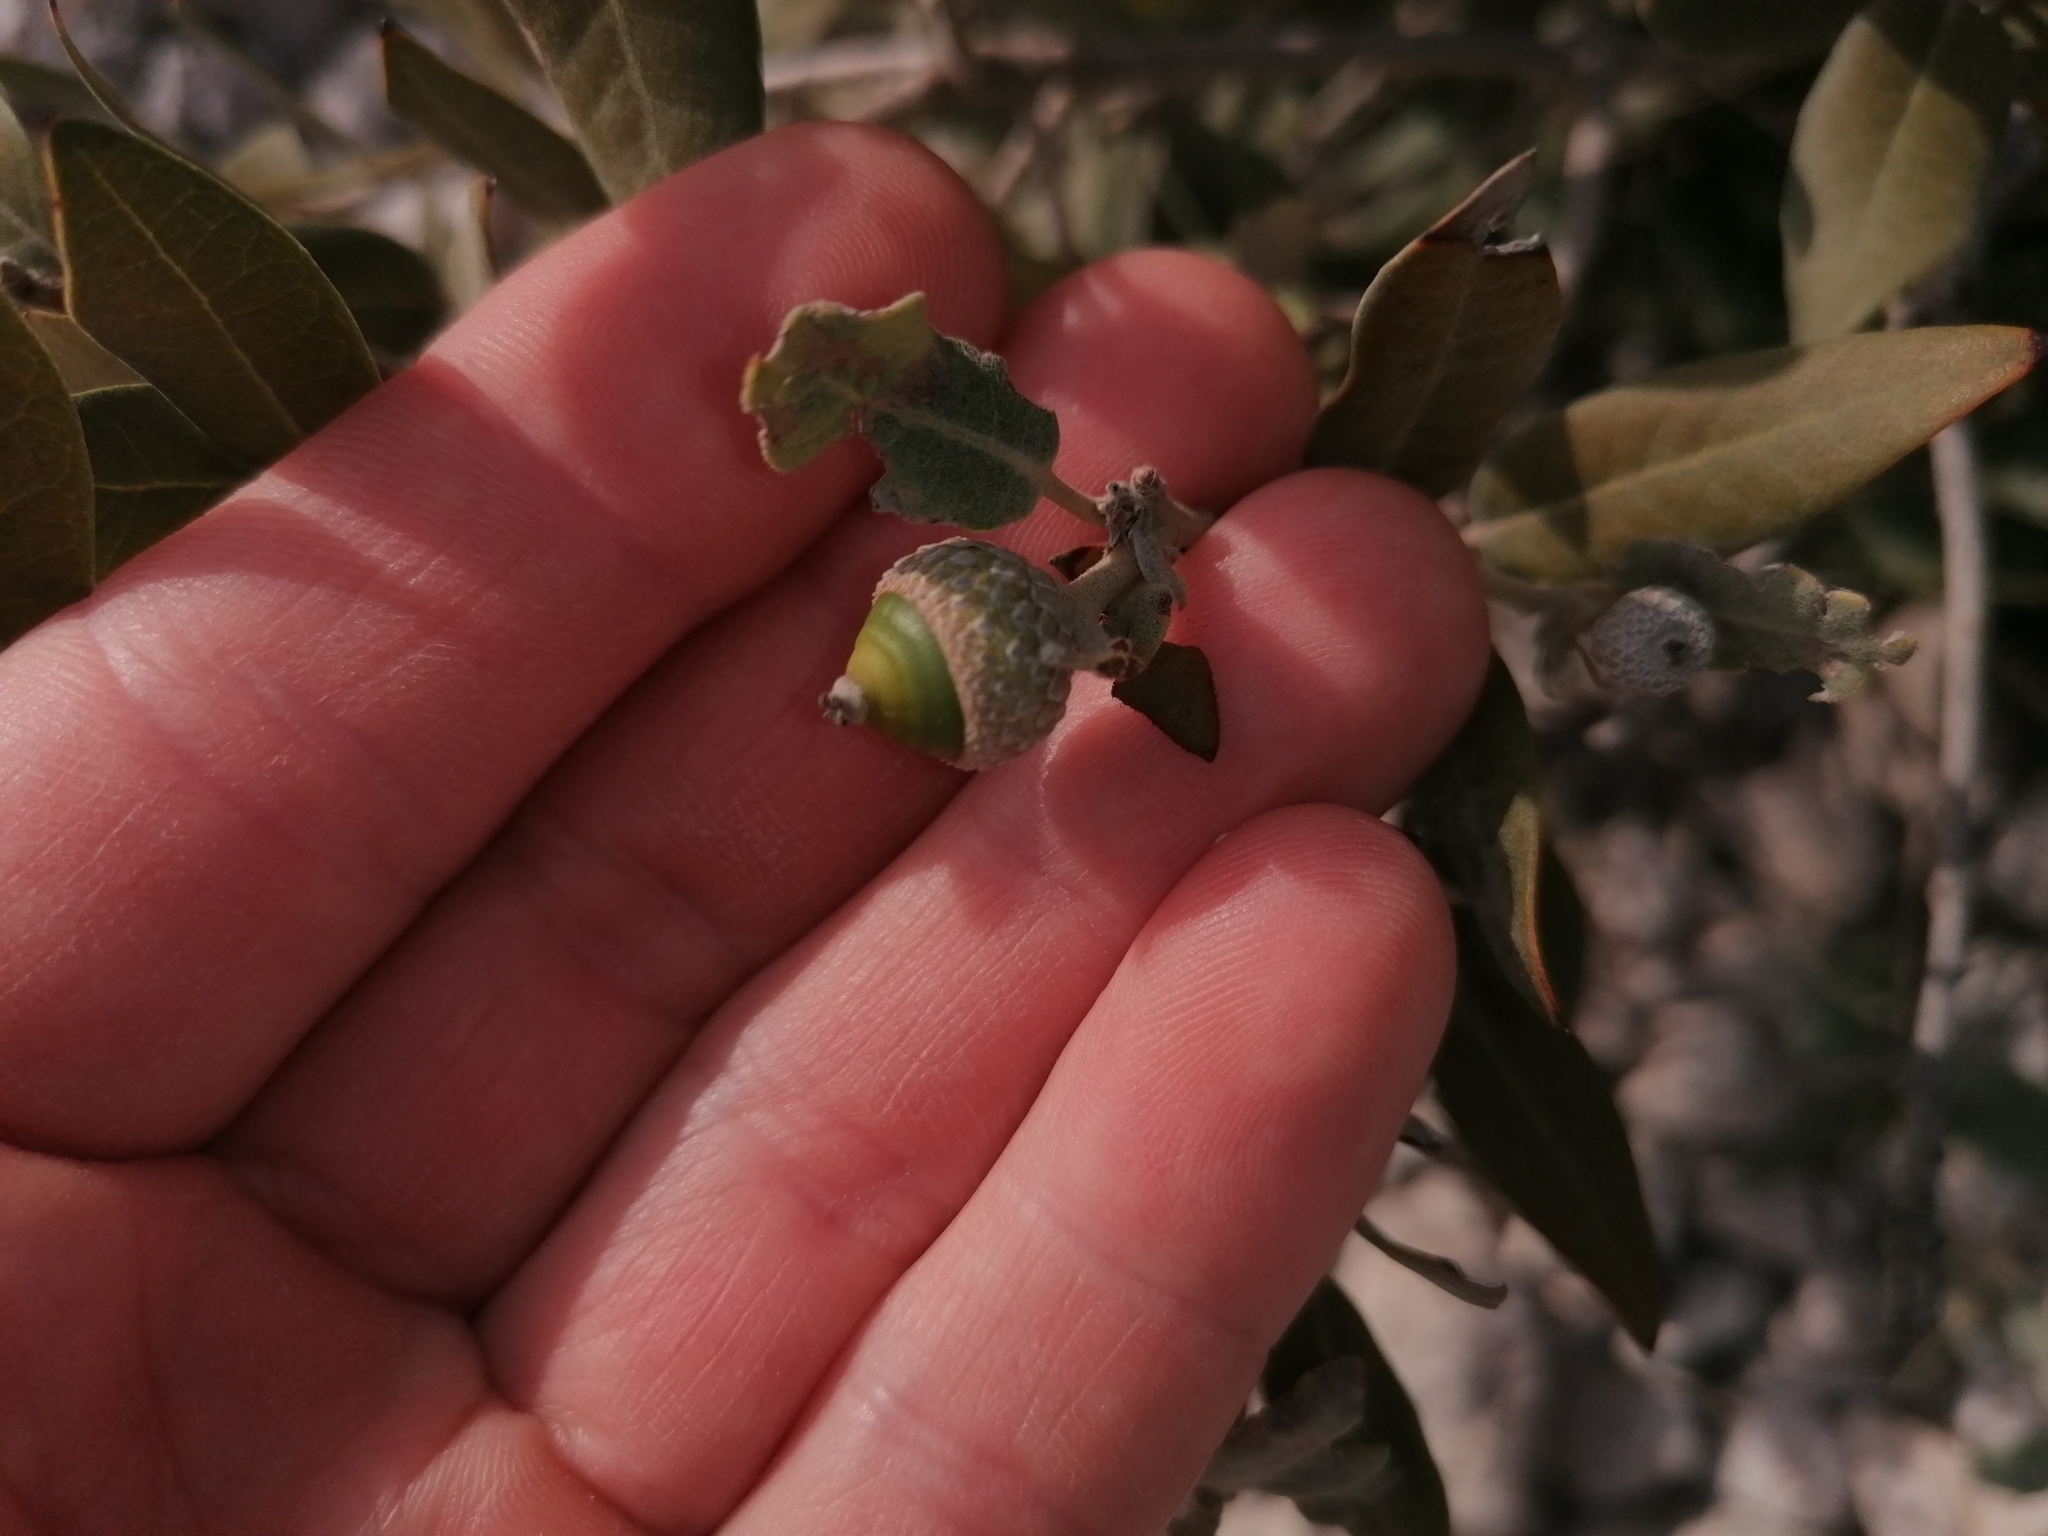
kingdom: Plantae
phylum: Tracheophyta
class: Magnoliopsida
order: Fagales
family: Fagaceae
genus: Quercus
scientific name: Quercus ilex
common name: Evergreen oak
